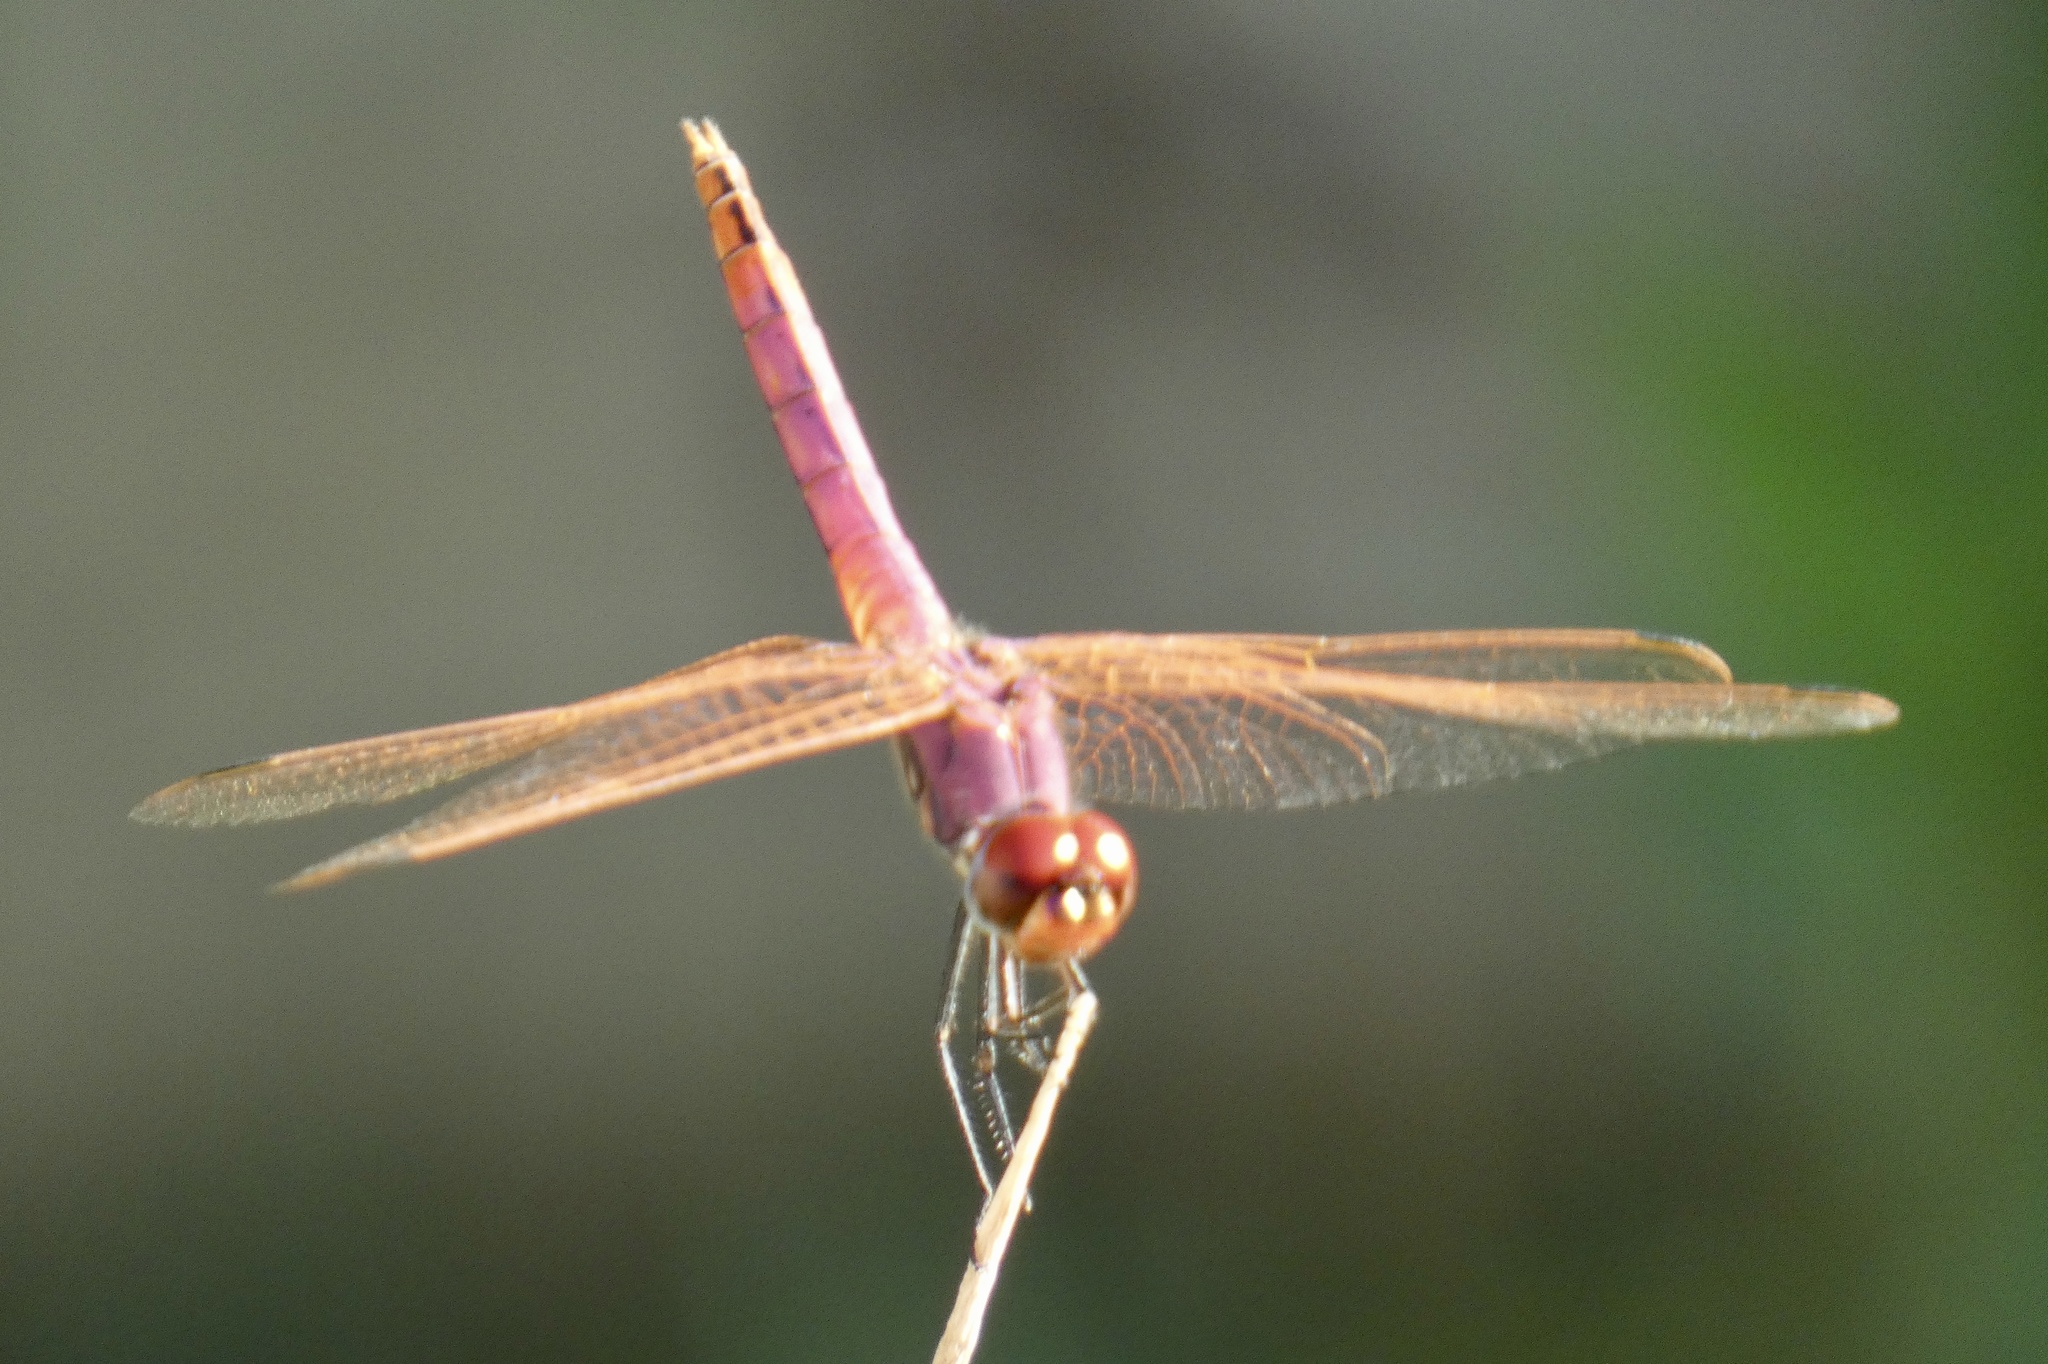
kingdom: Animalia
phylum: Arthropoda
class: Insecta
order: Odonata
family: Libellulidae
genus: Trithemis
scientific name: Trithemis annulata
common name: Violet dropwing
